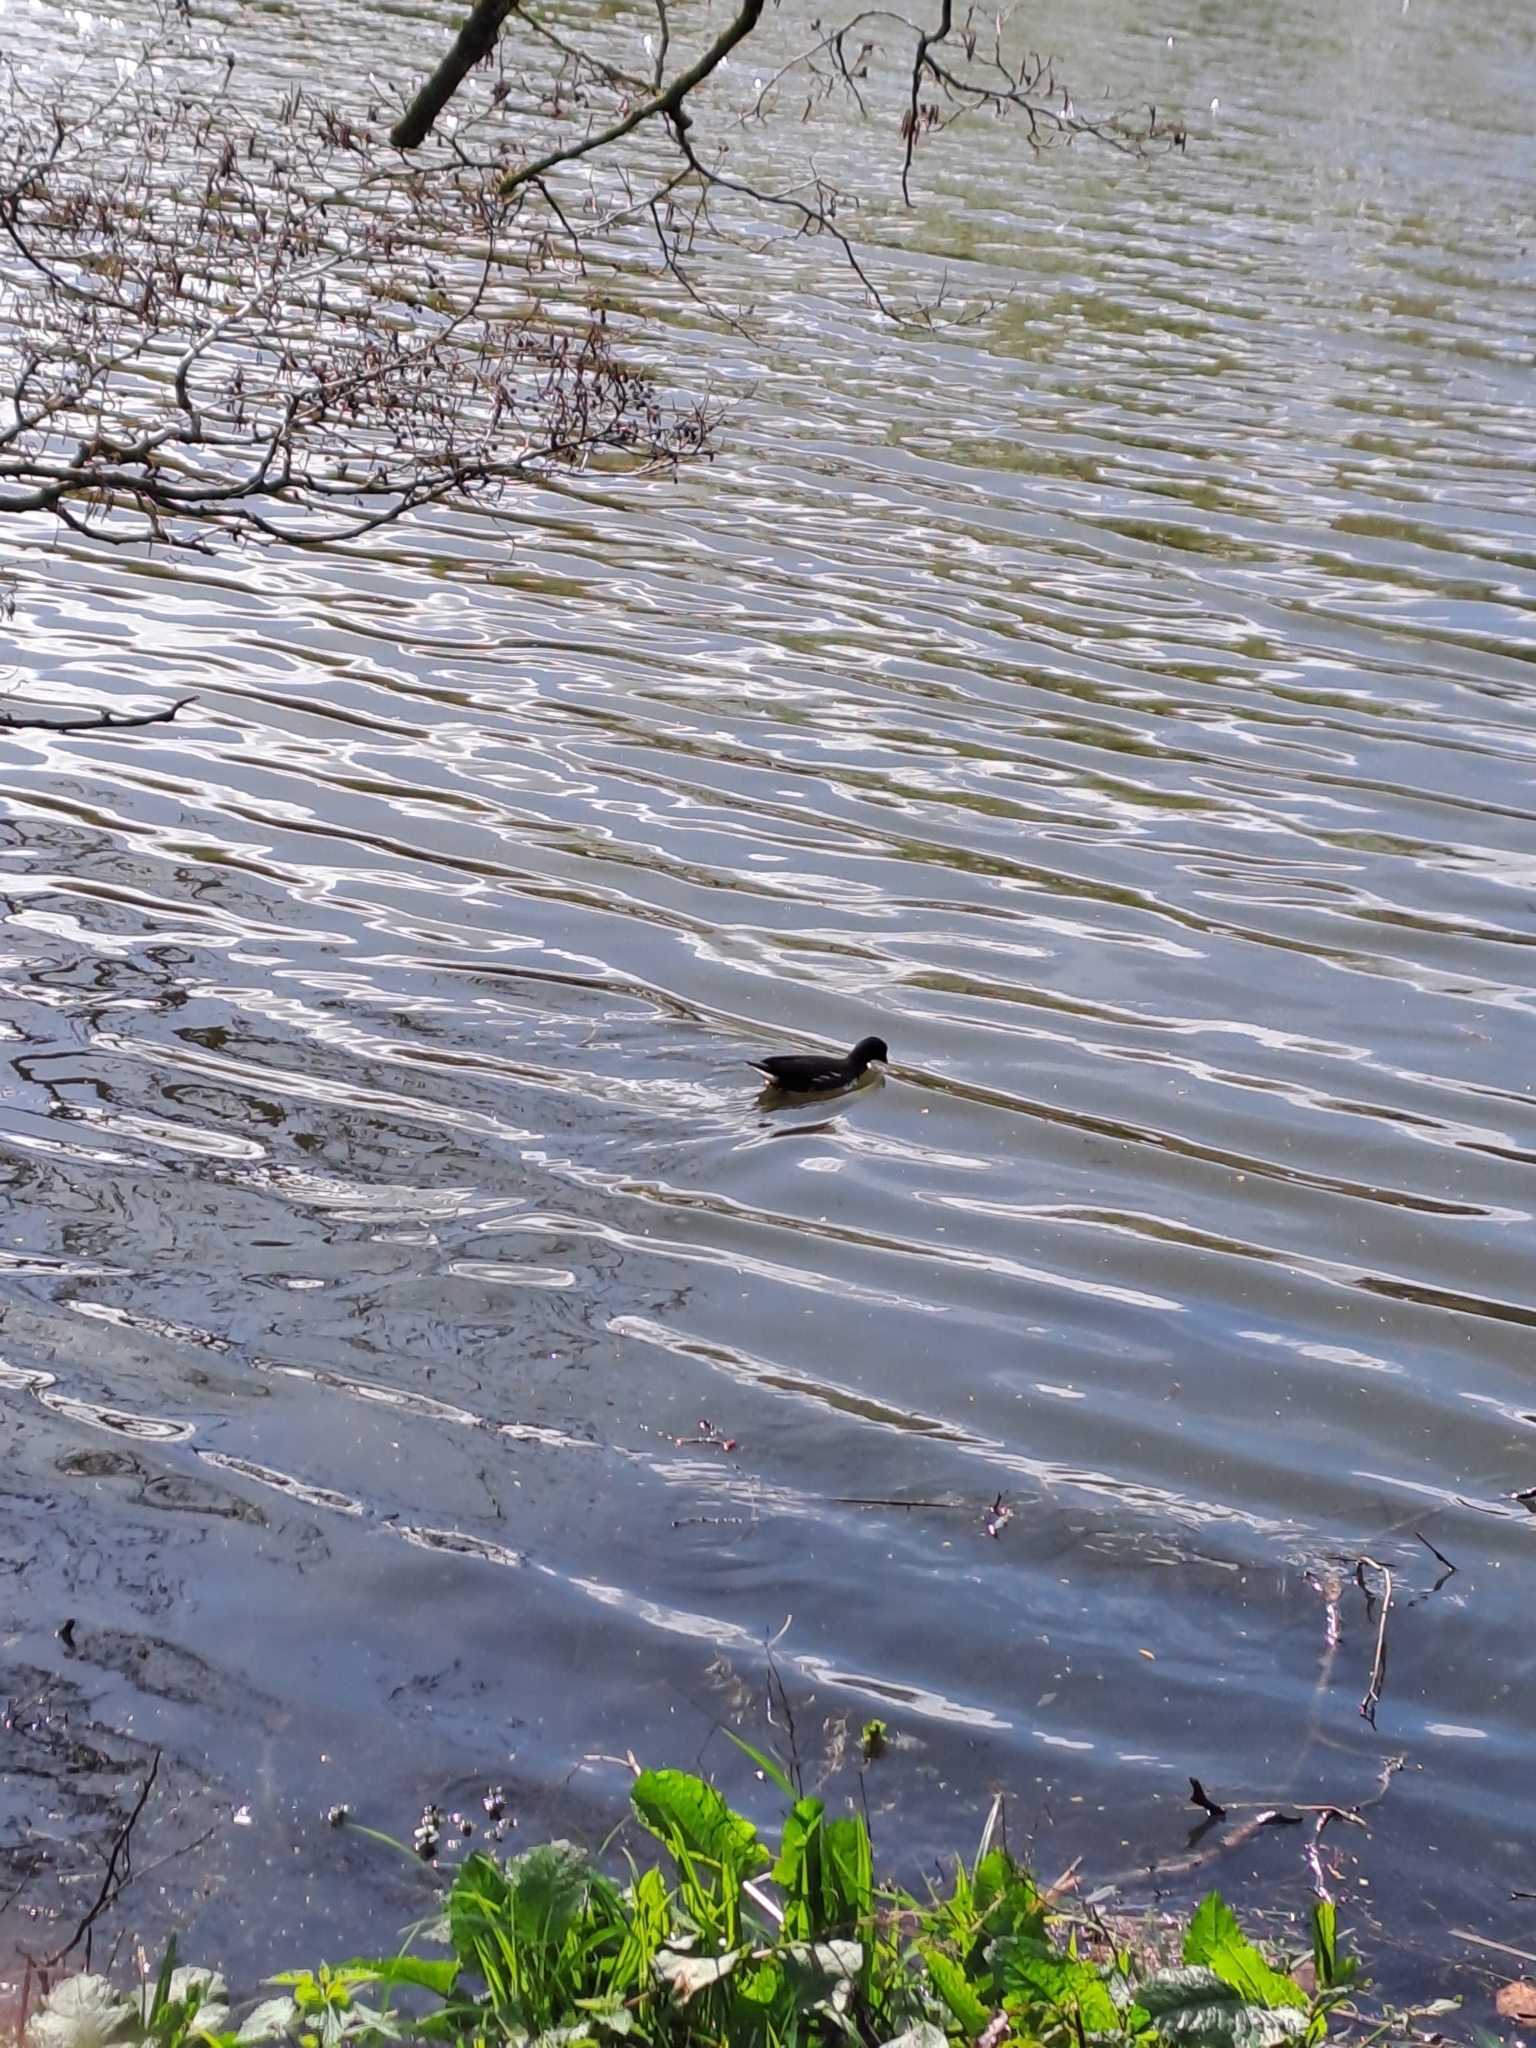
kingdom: Animalia
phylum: Chordata
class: Aves
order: Gruiformes
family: Rallidae
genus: Gallinula
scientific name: Gallinula chloropus
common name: Common moorhen
